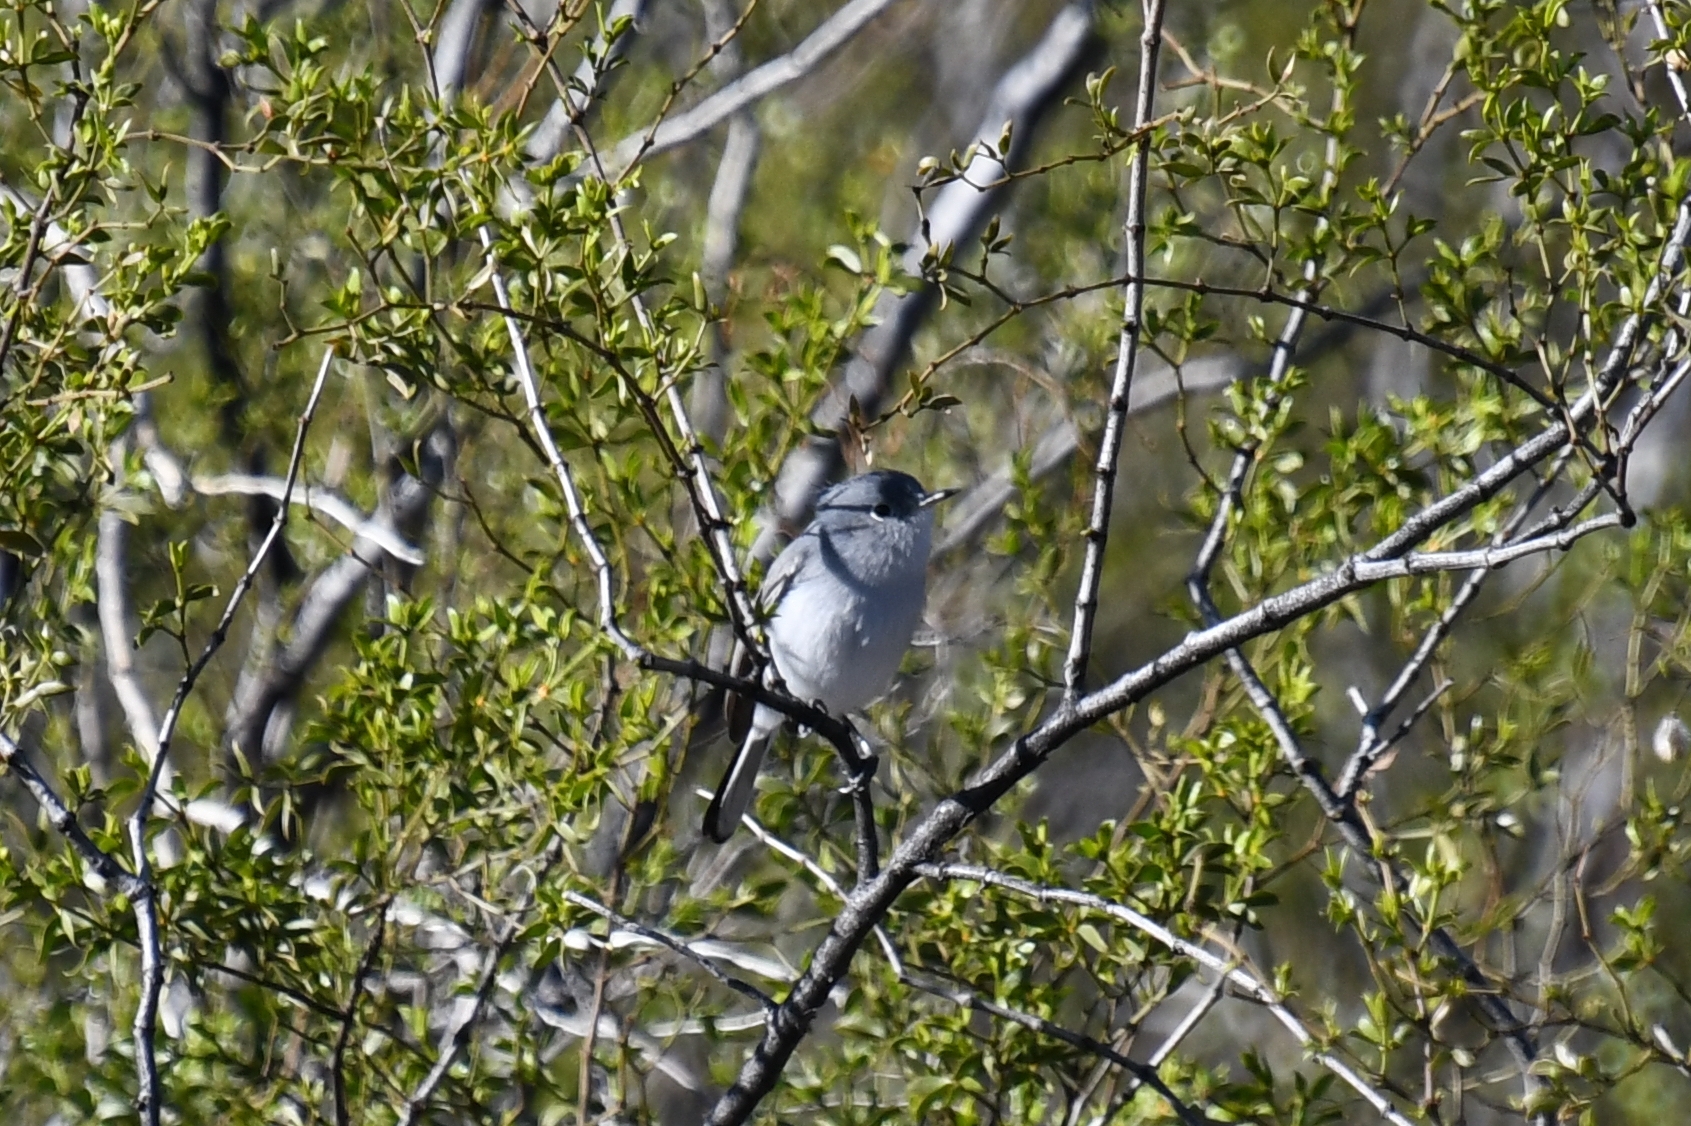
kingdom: Animalia
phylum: Chordata
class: Aves
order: Passeriformes
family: Polioptilidae
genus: Polioptila
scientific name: Polioptila caerulea
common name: Blue-gray gnatcatcher
